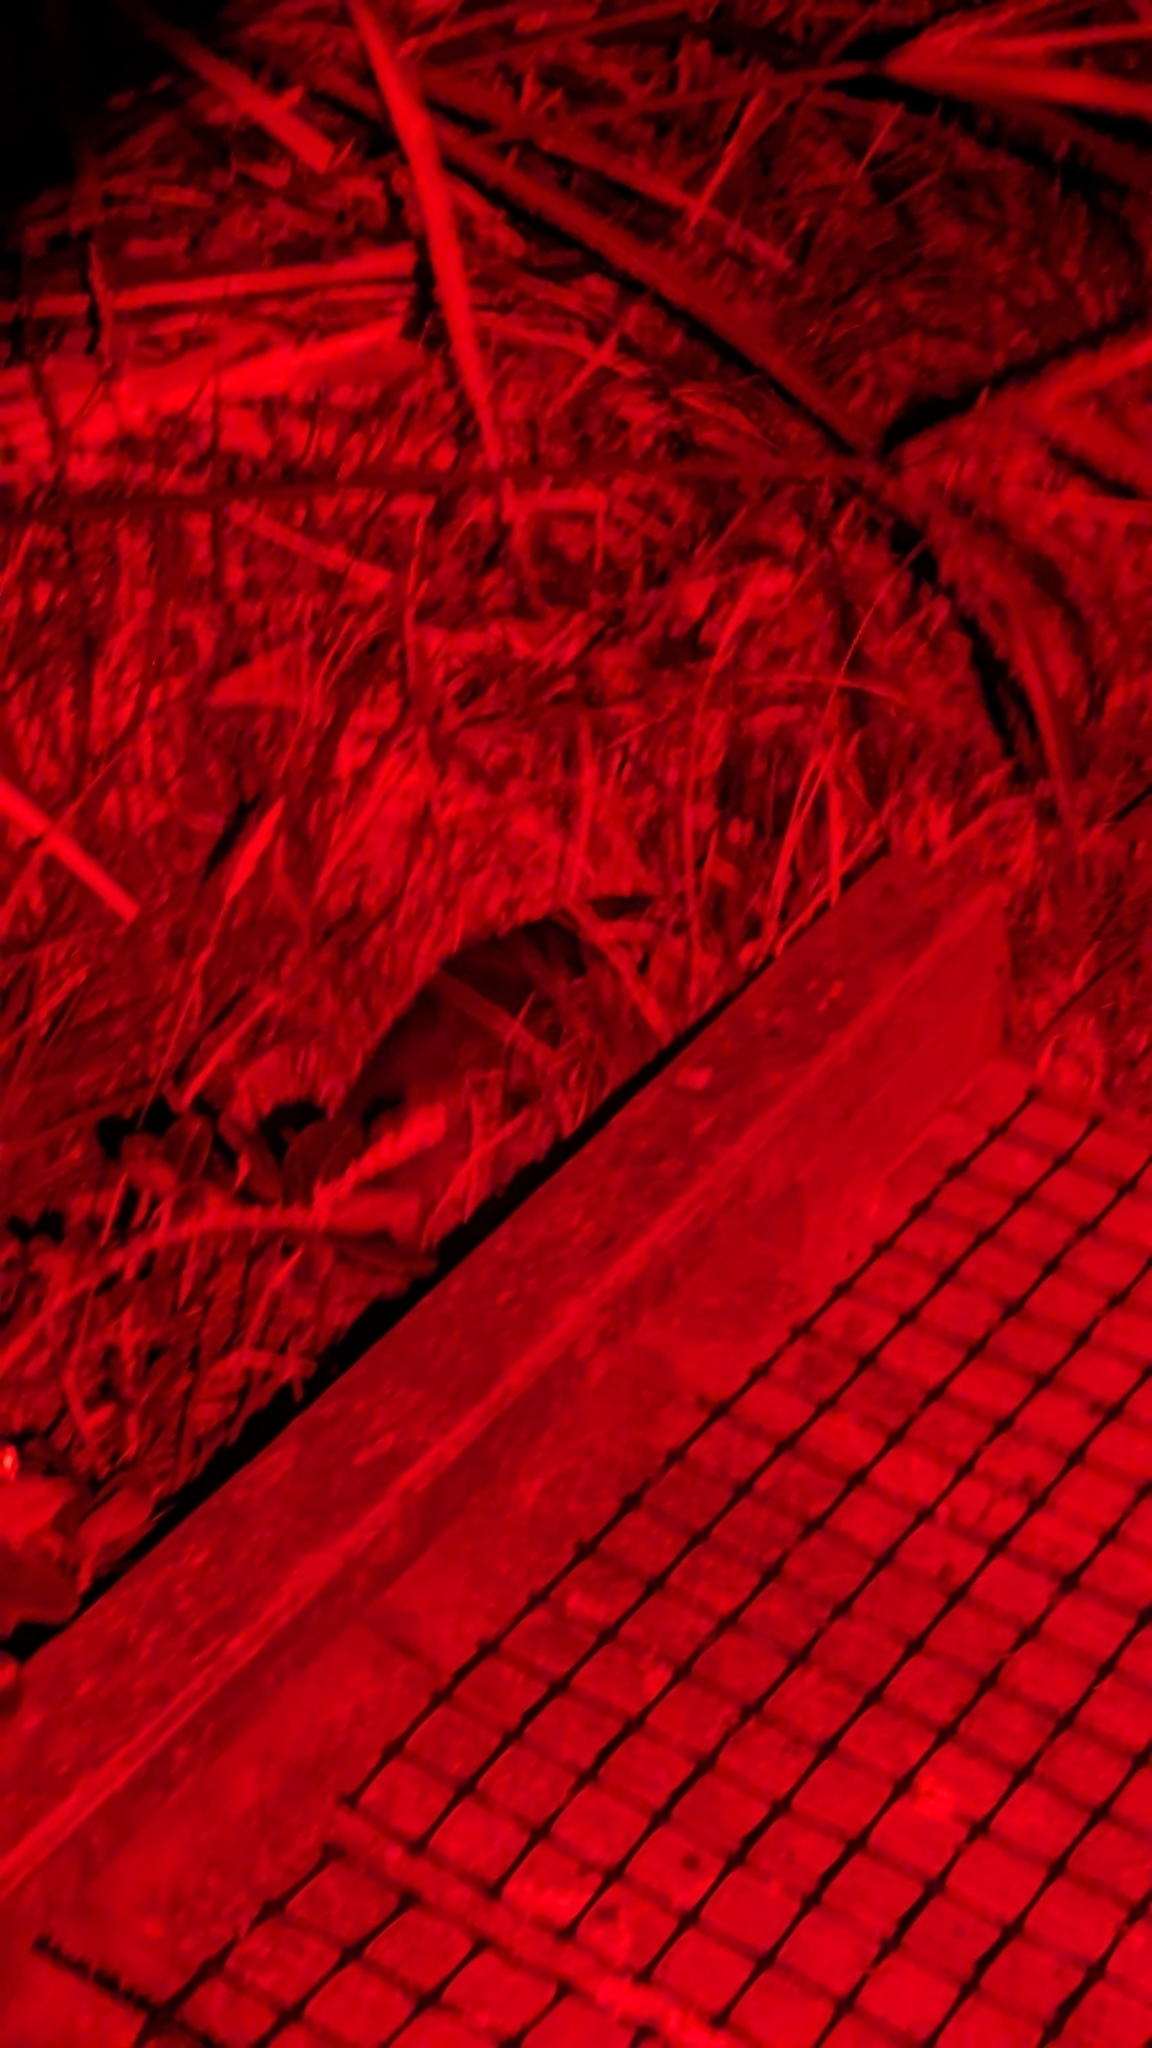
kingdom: Animalia
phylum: Chordata
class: Aves
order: Sphenisciformes
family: Spheniscidae
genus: Eudyptula
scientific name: Eudyptula minor
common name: Little penguin
